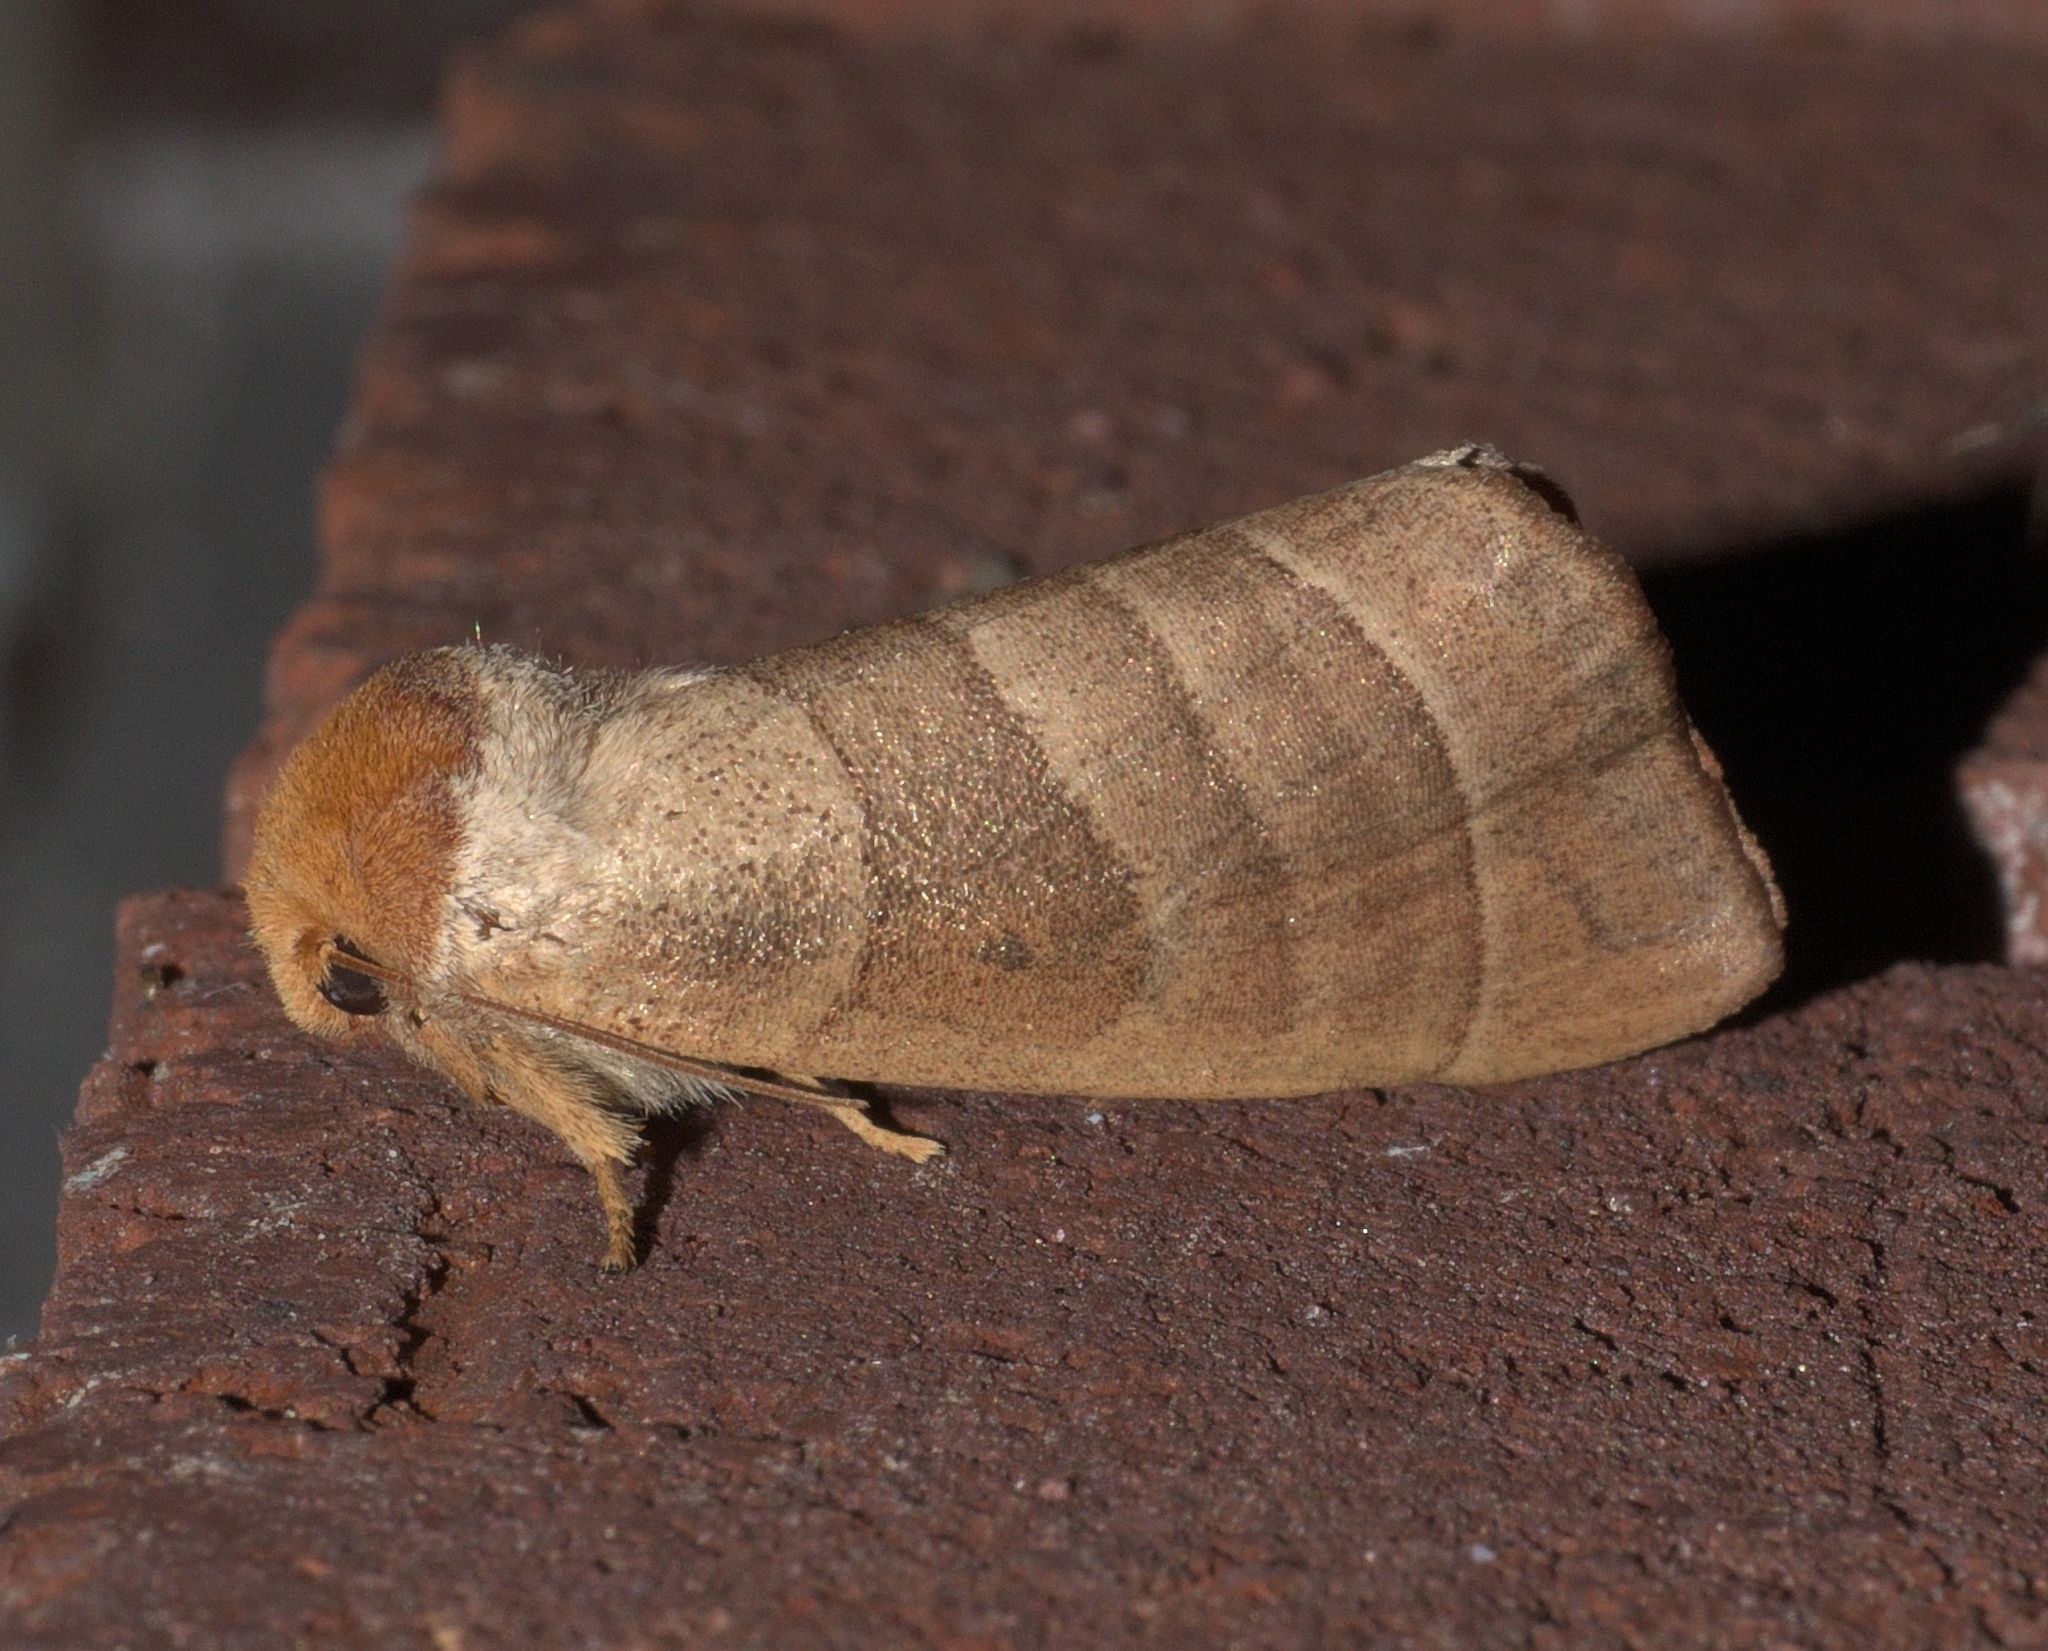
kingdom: Animalia
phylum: Arthropoda
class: Insecta
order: Lepidoptera
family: Notodontidae
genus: Datana
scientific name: Datana integerrima
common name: Walnut caterpillar
